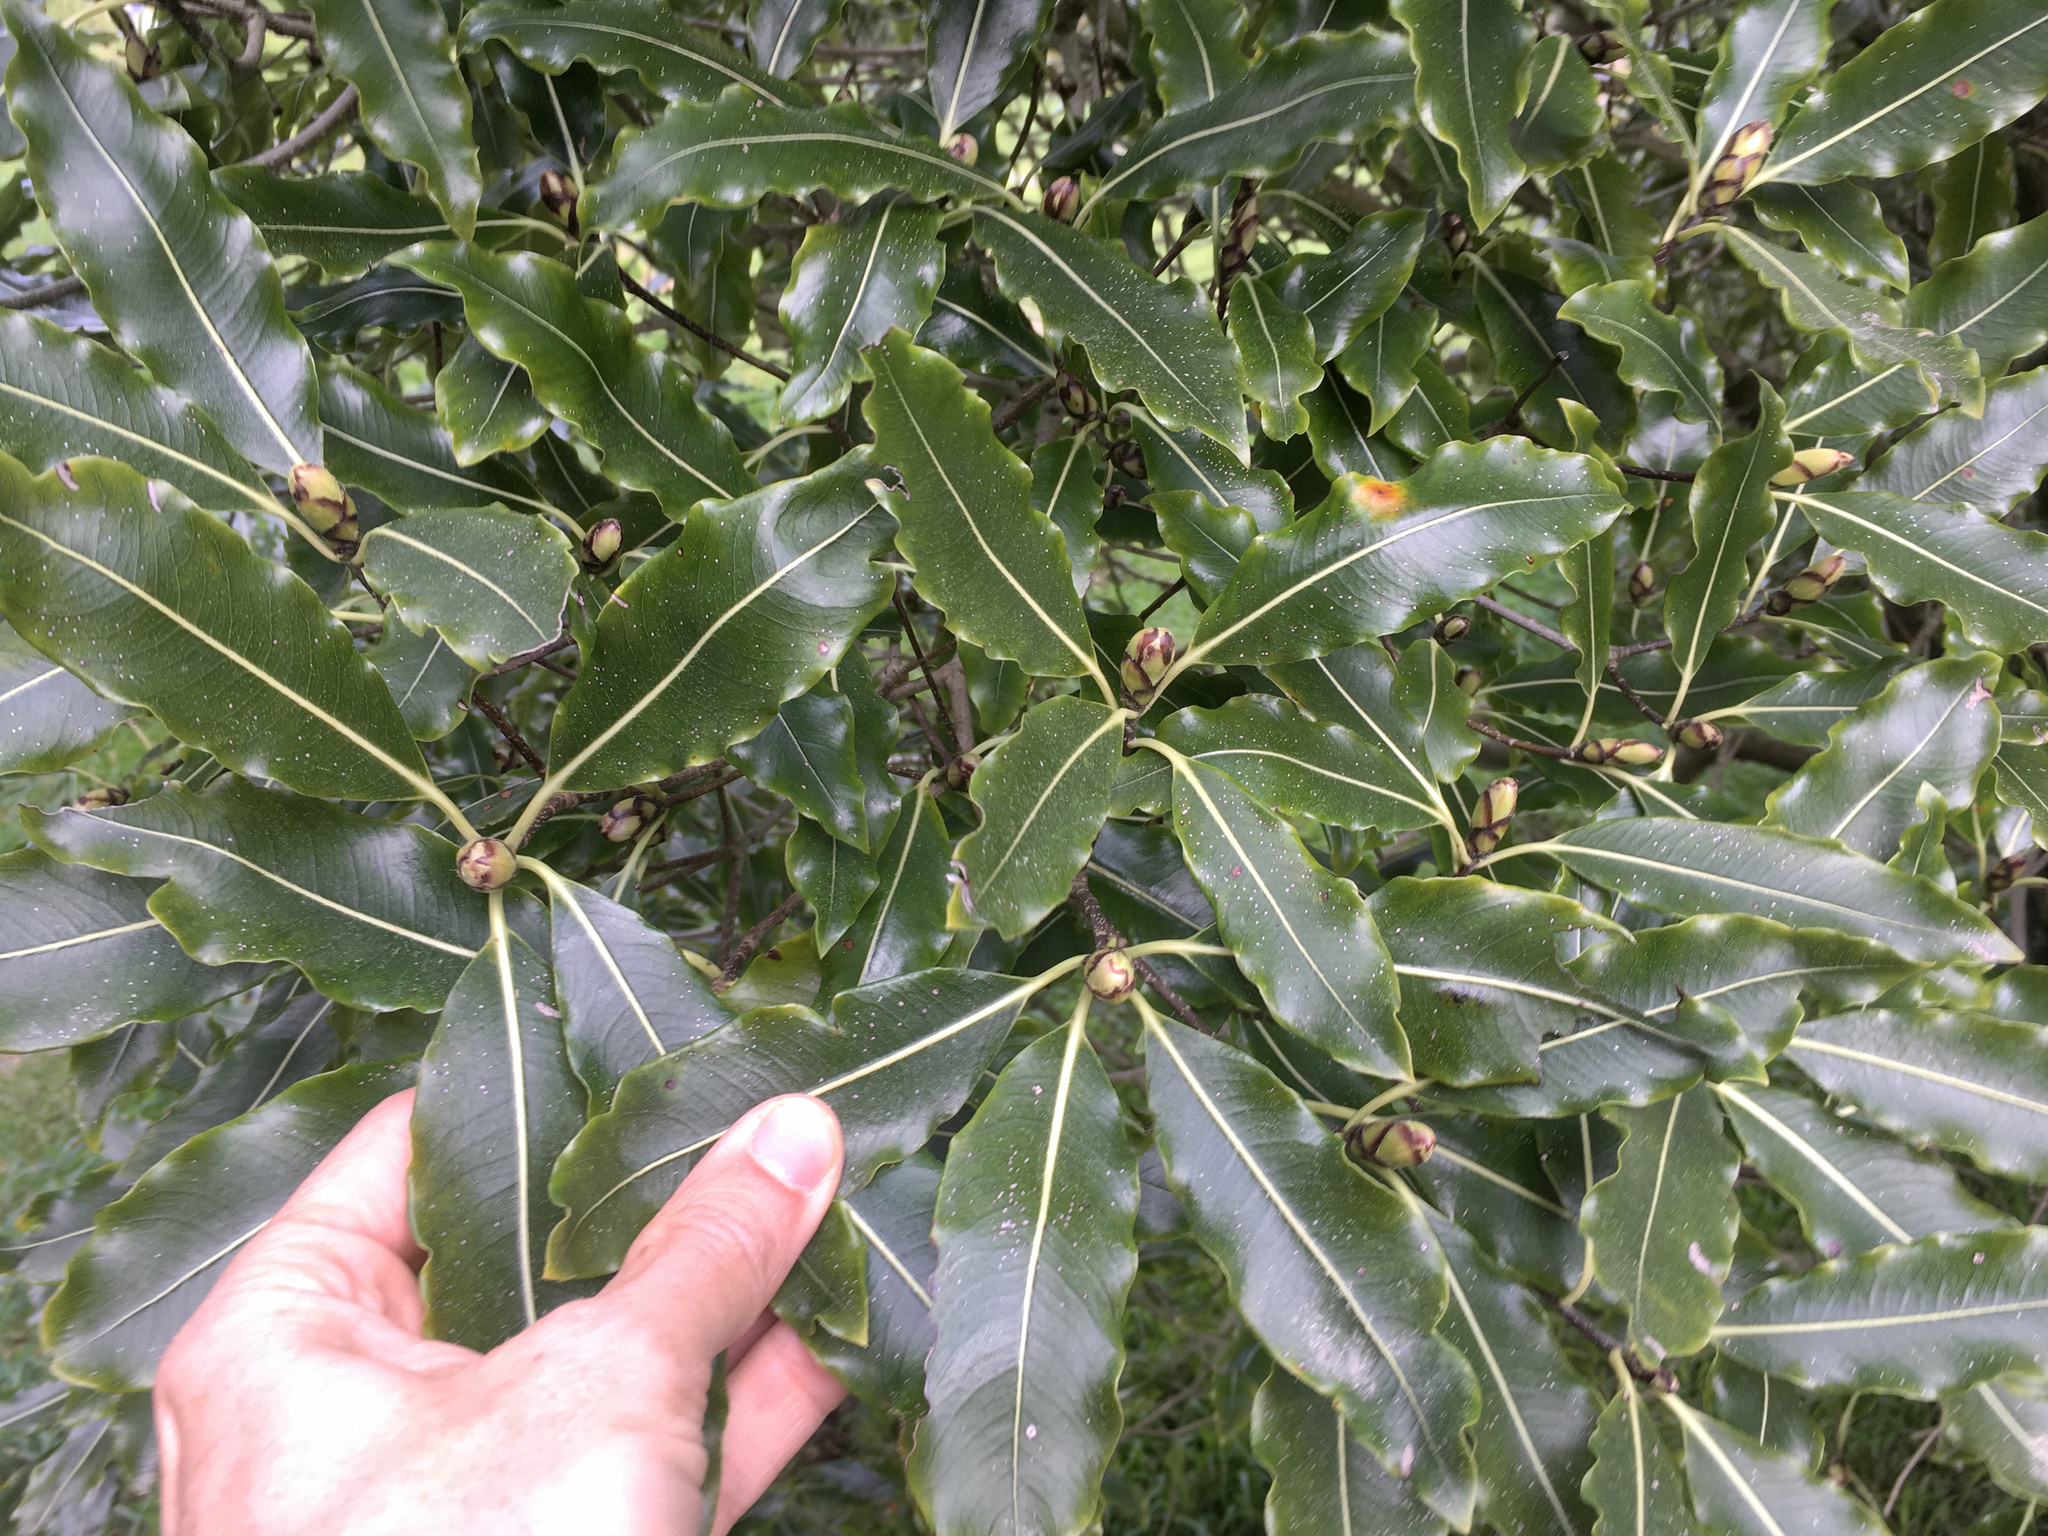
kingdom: Plantae
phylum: Tracheophyta
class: Magnoliopsida
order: Apiales
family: Pittosporaceae
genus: Pittosporum
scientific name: Pittosporum eugenioides
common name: Lemonwood
